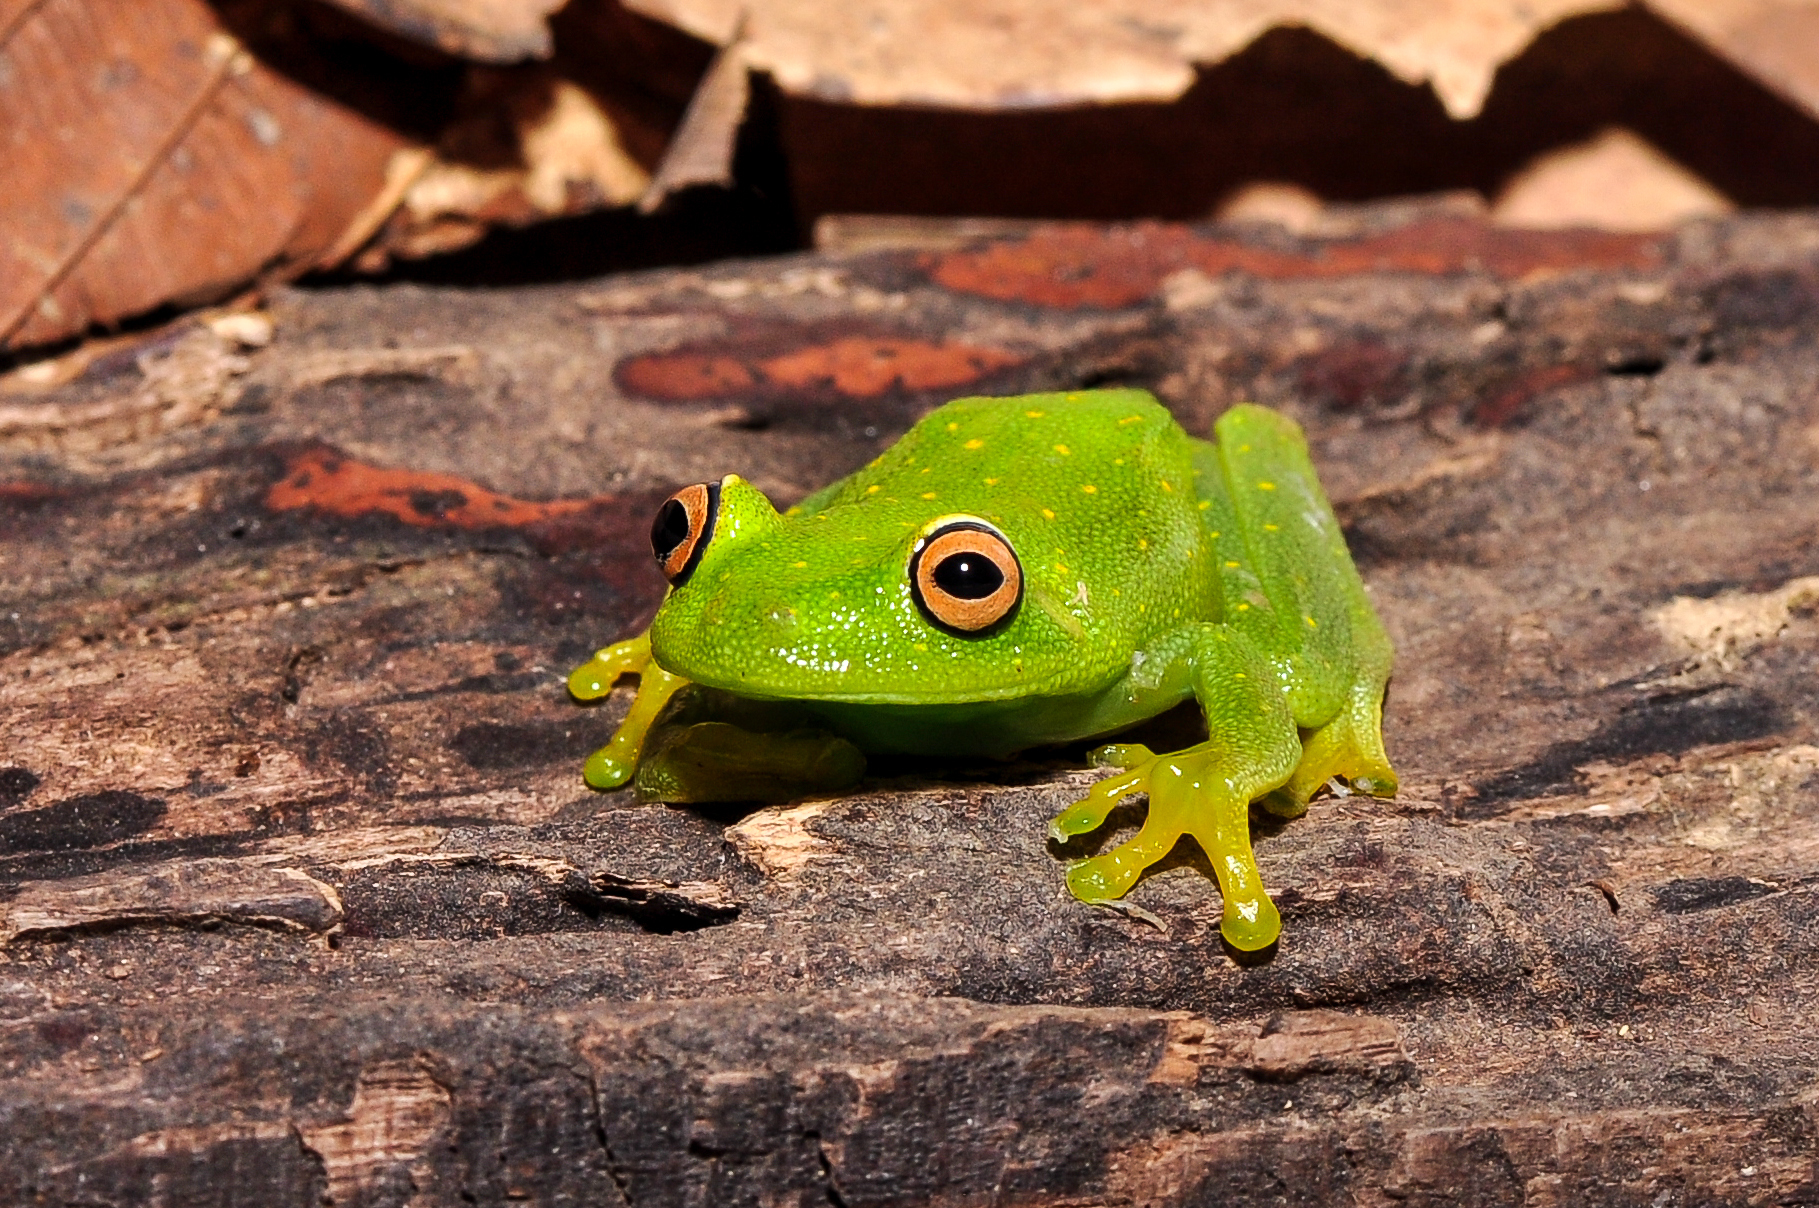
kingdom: Animalia
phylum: Chordata
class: Amphibia
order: Anura
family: Hylidae
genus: Boana
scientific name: Boana cinerascens
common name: Demerara falls treefrog
